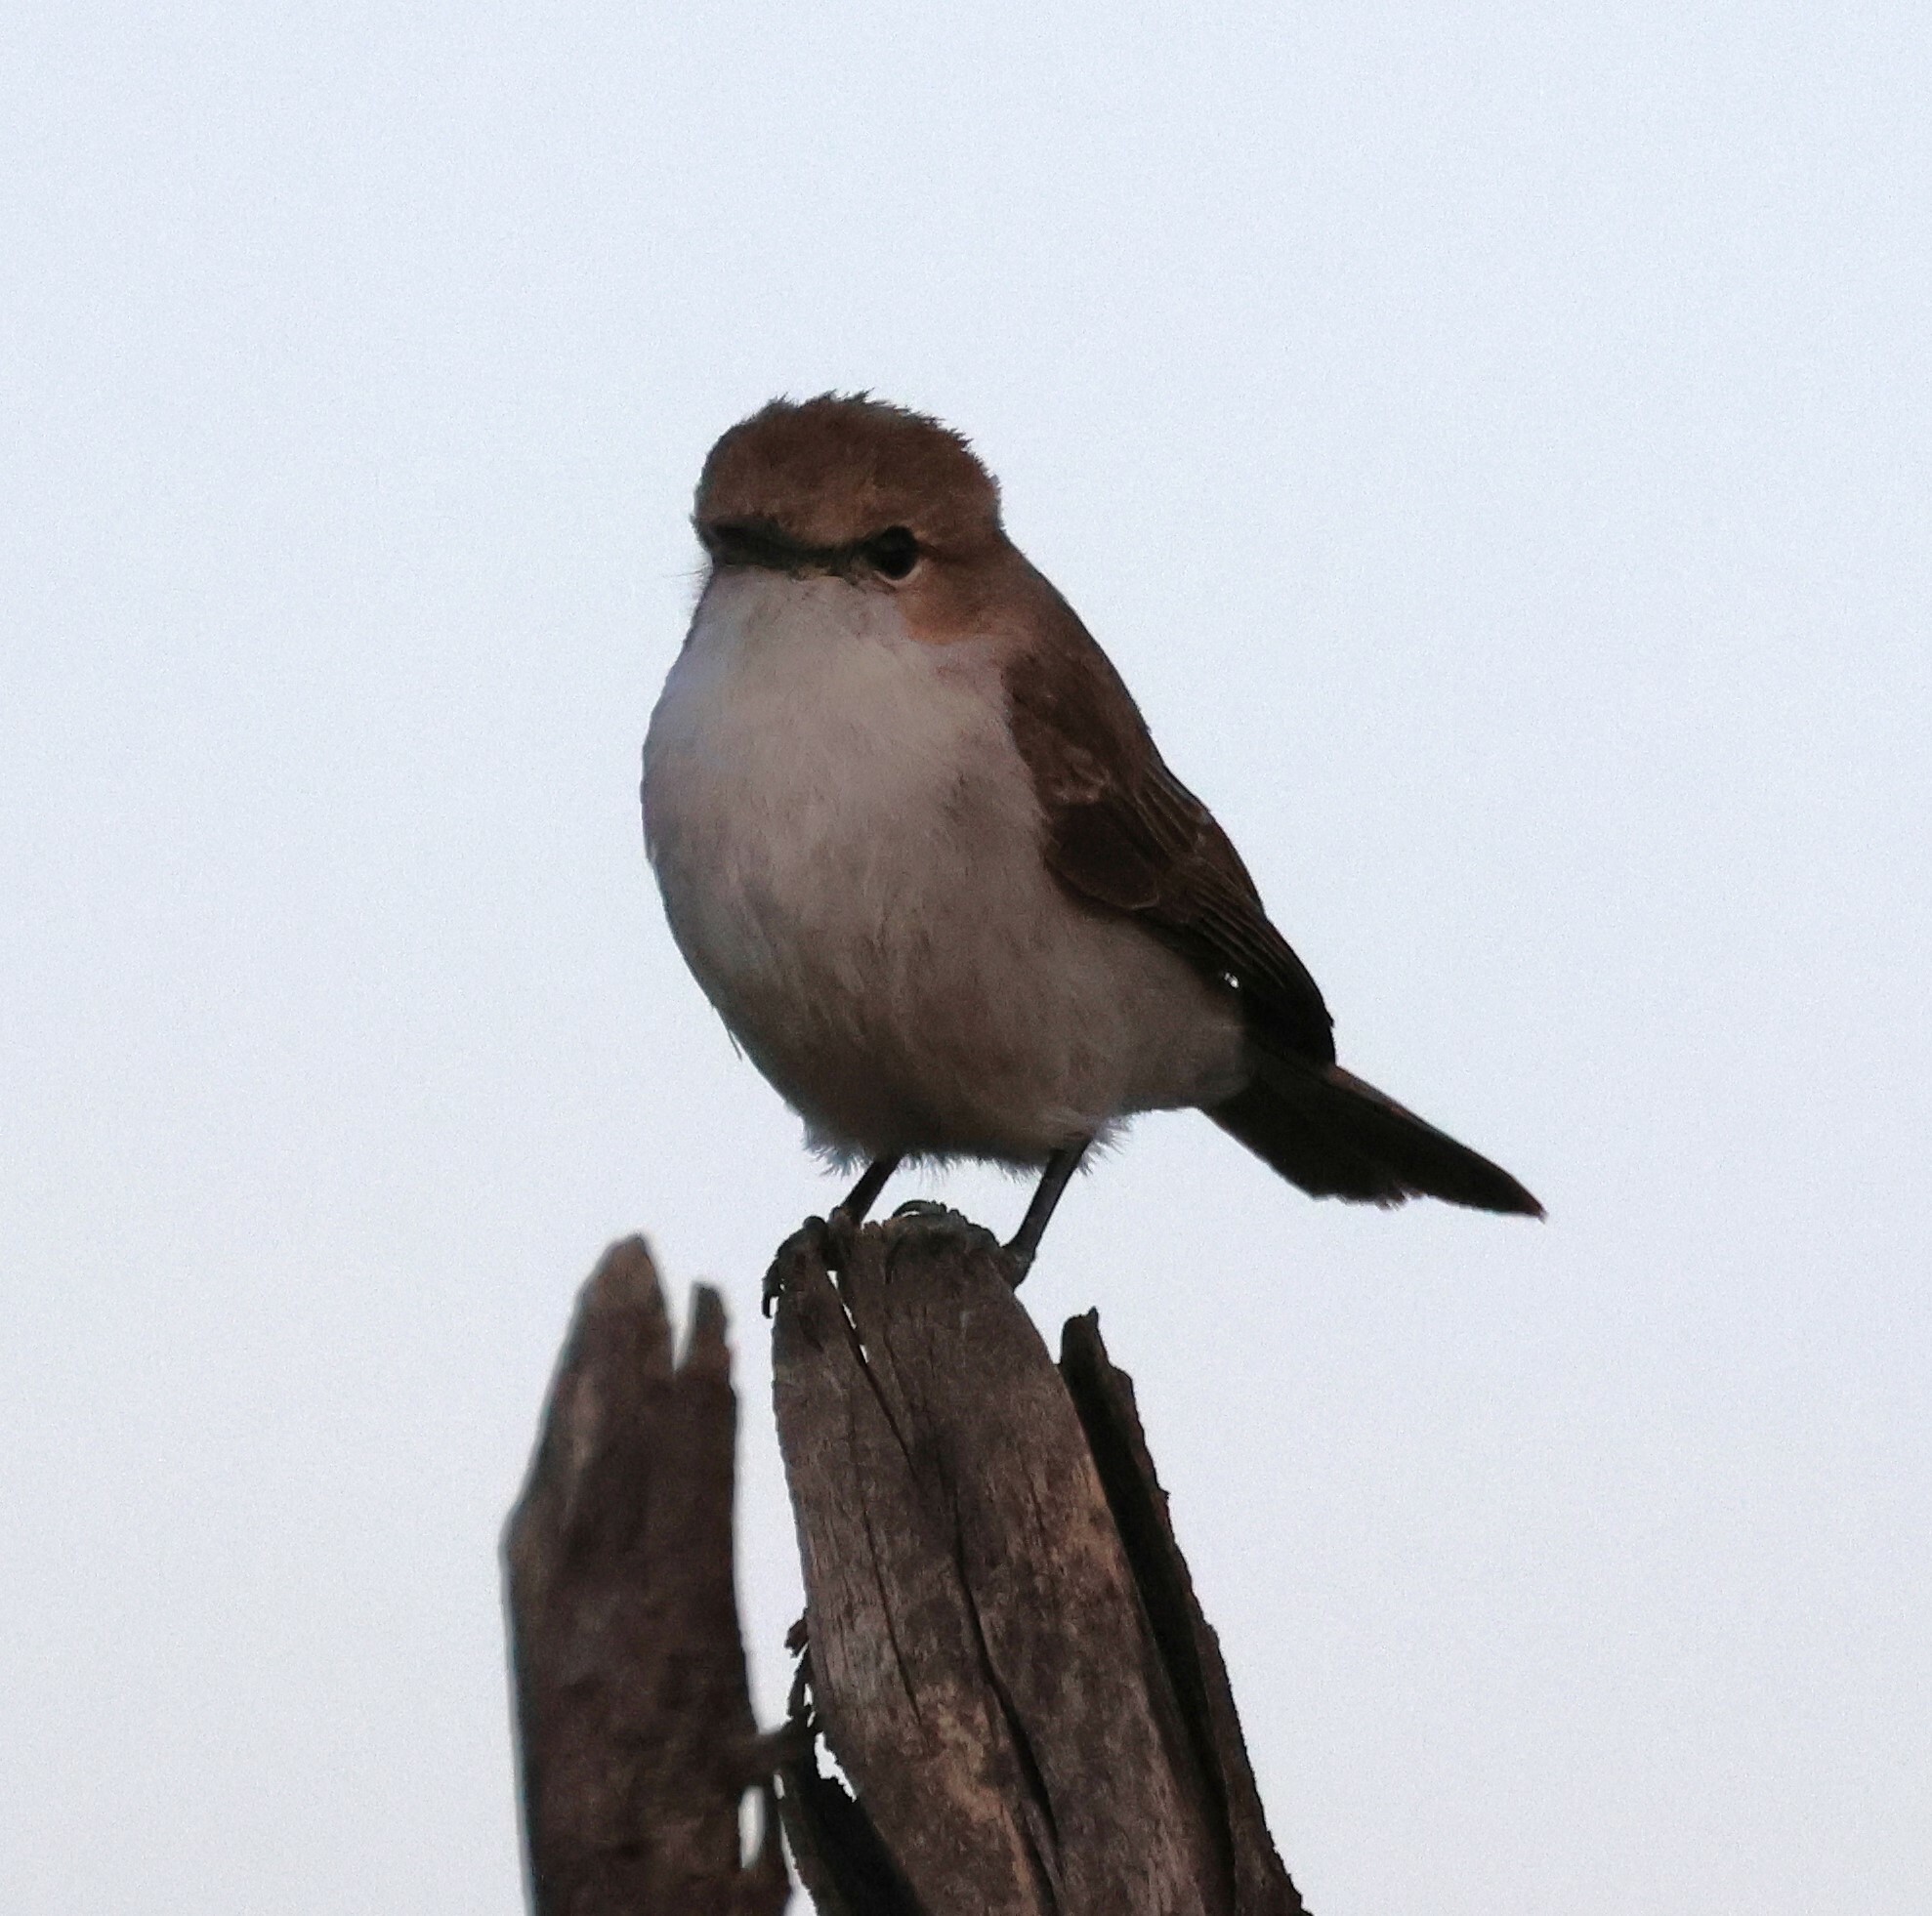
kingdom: Animalia
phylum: Chordata
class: Aves
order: Passeriformes
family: Muscicapidae
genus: Bradornis
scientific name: Bradornis mariquensis
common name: Marico flycatcher
